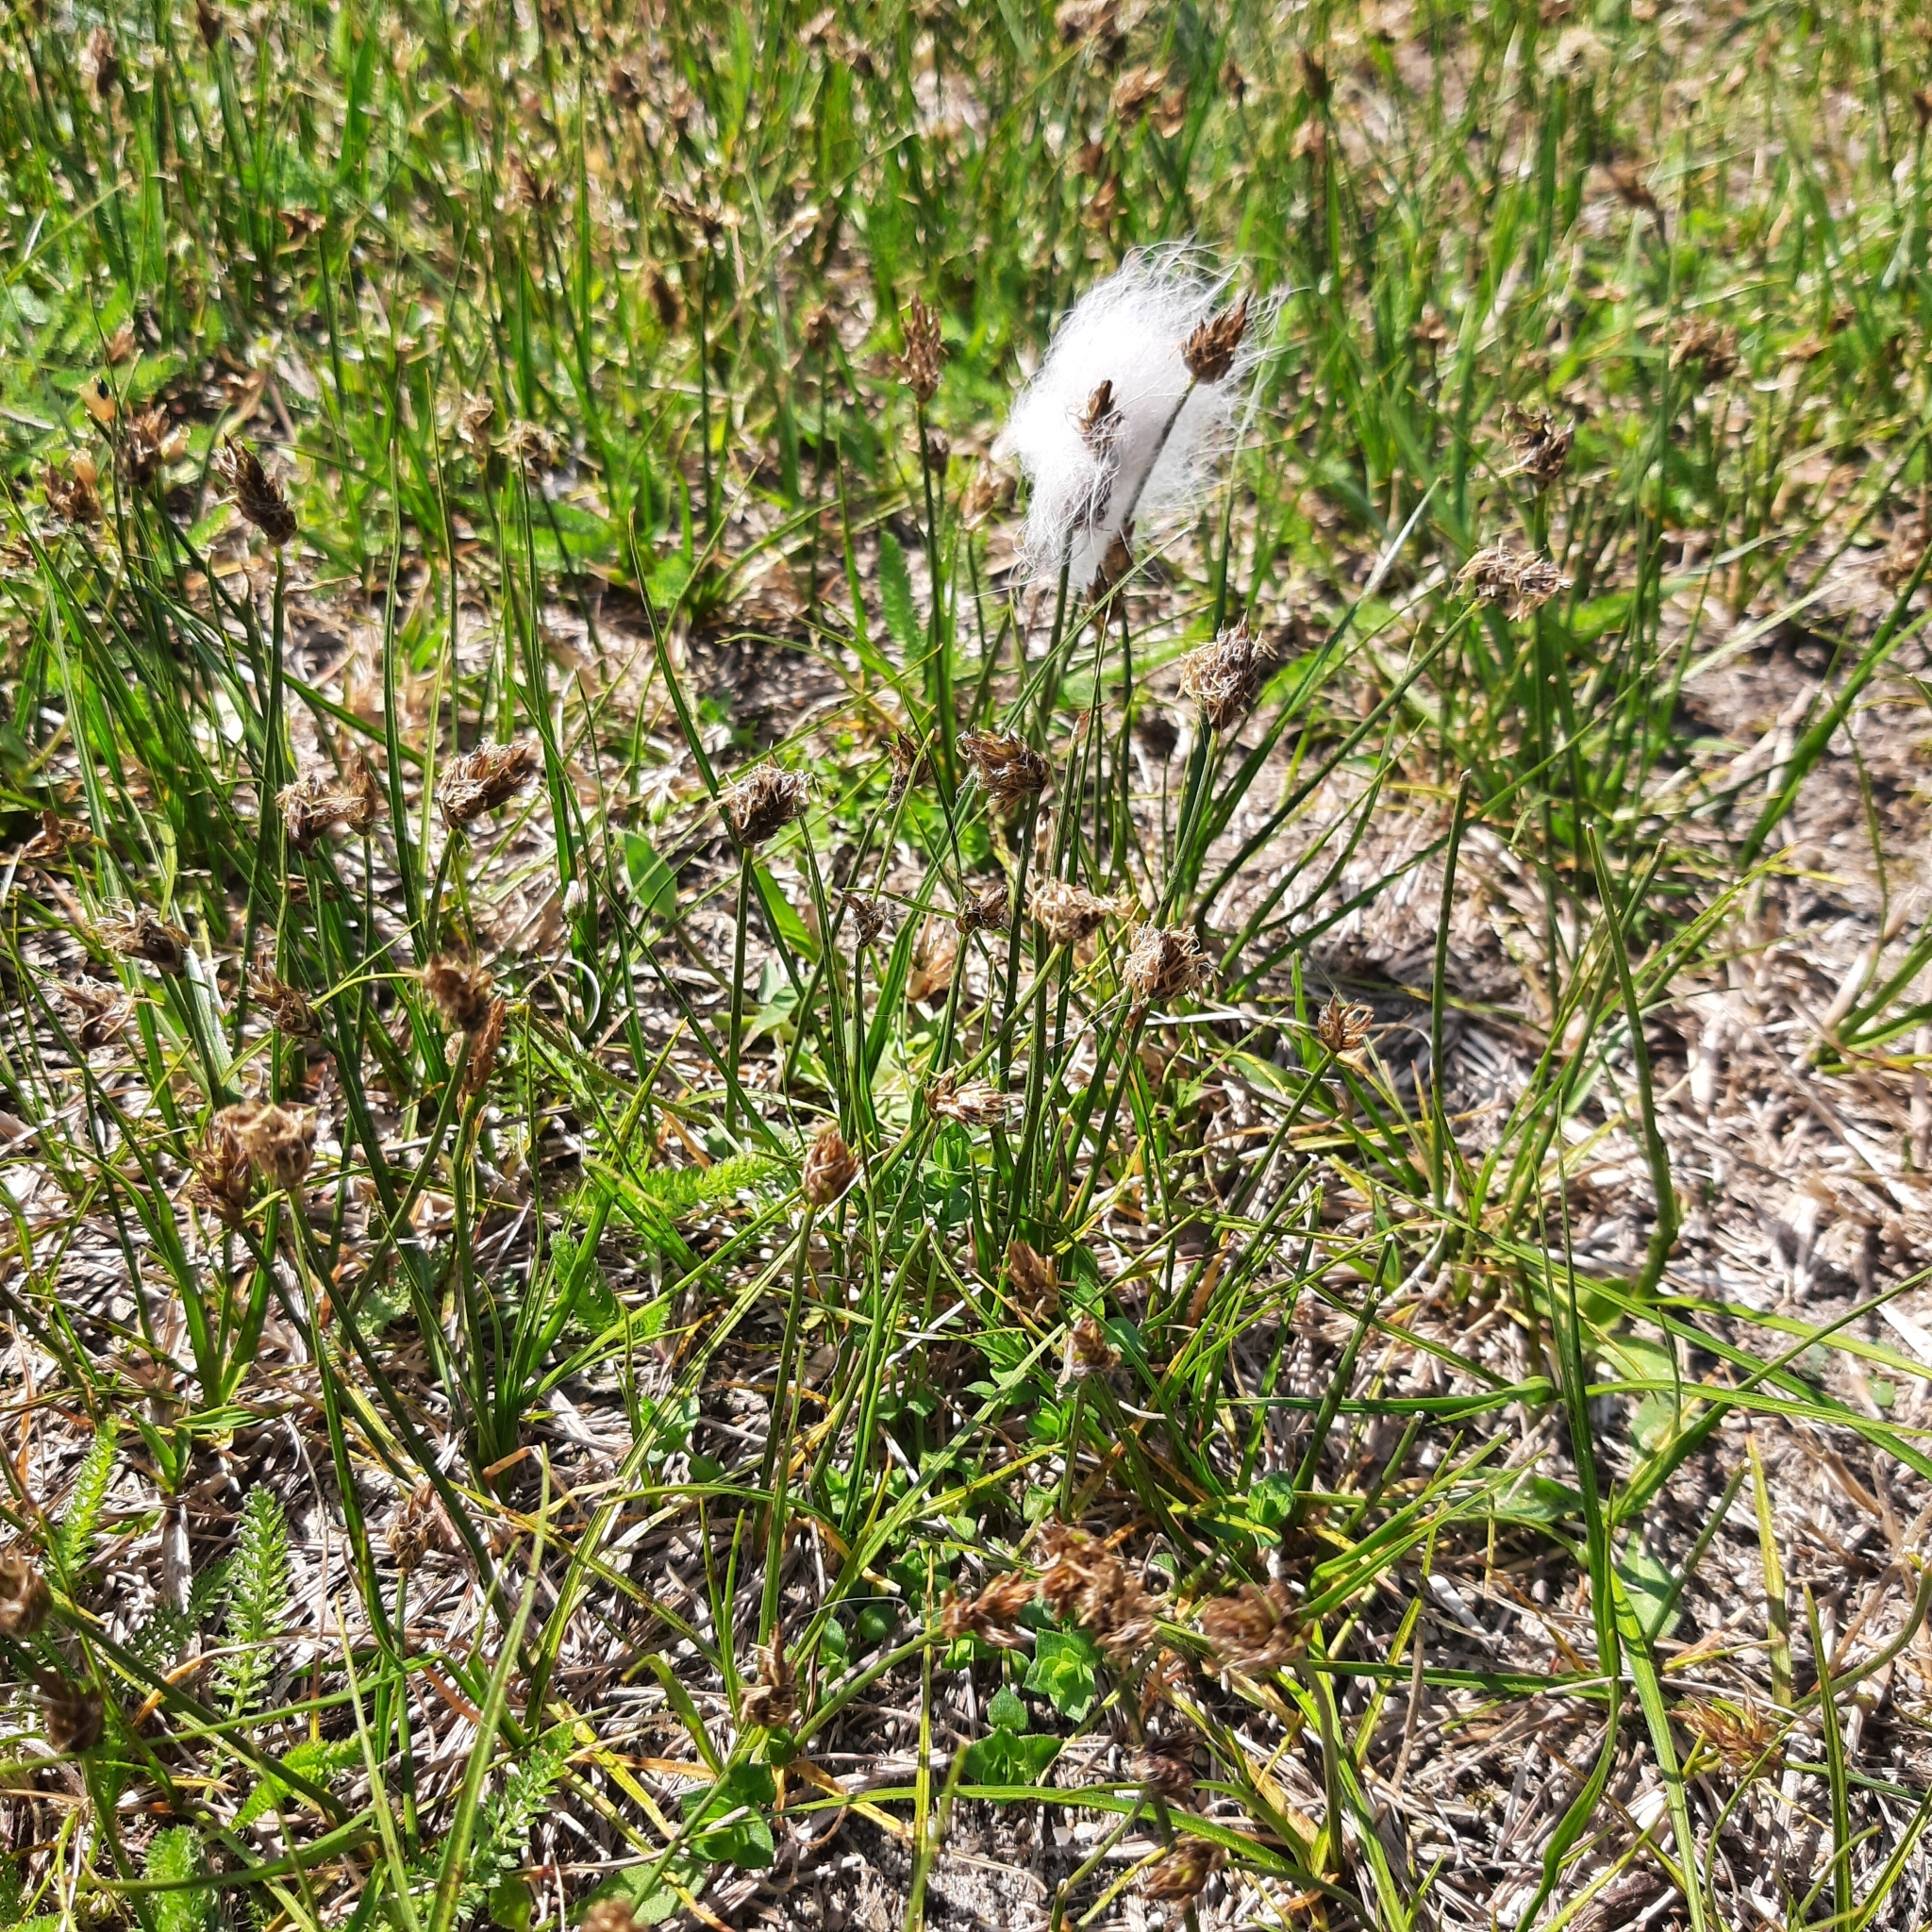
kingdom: Plantae
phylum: Tracheophyta
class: Liliopsida
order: Poales
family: Cyperaceae
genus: Carex
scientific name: Carex
